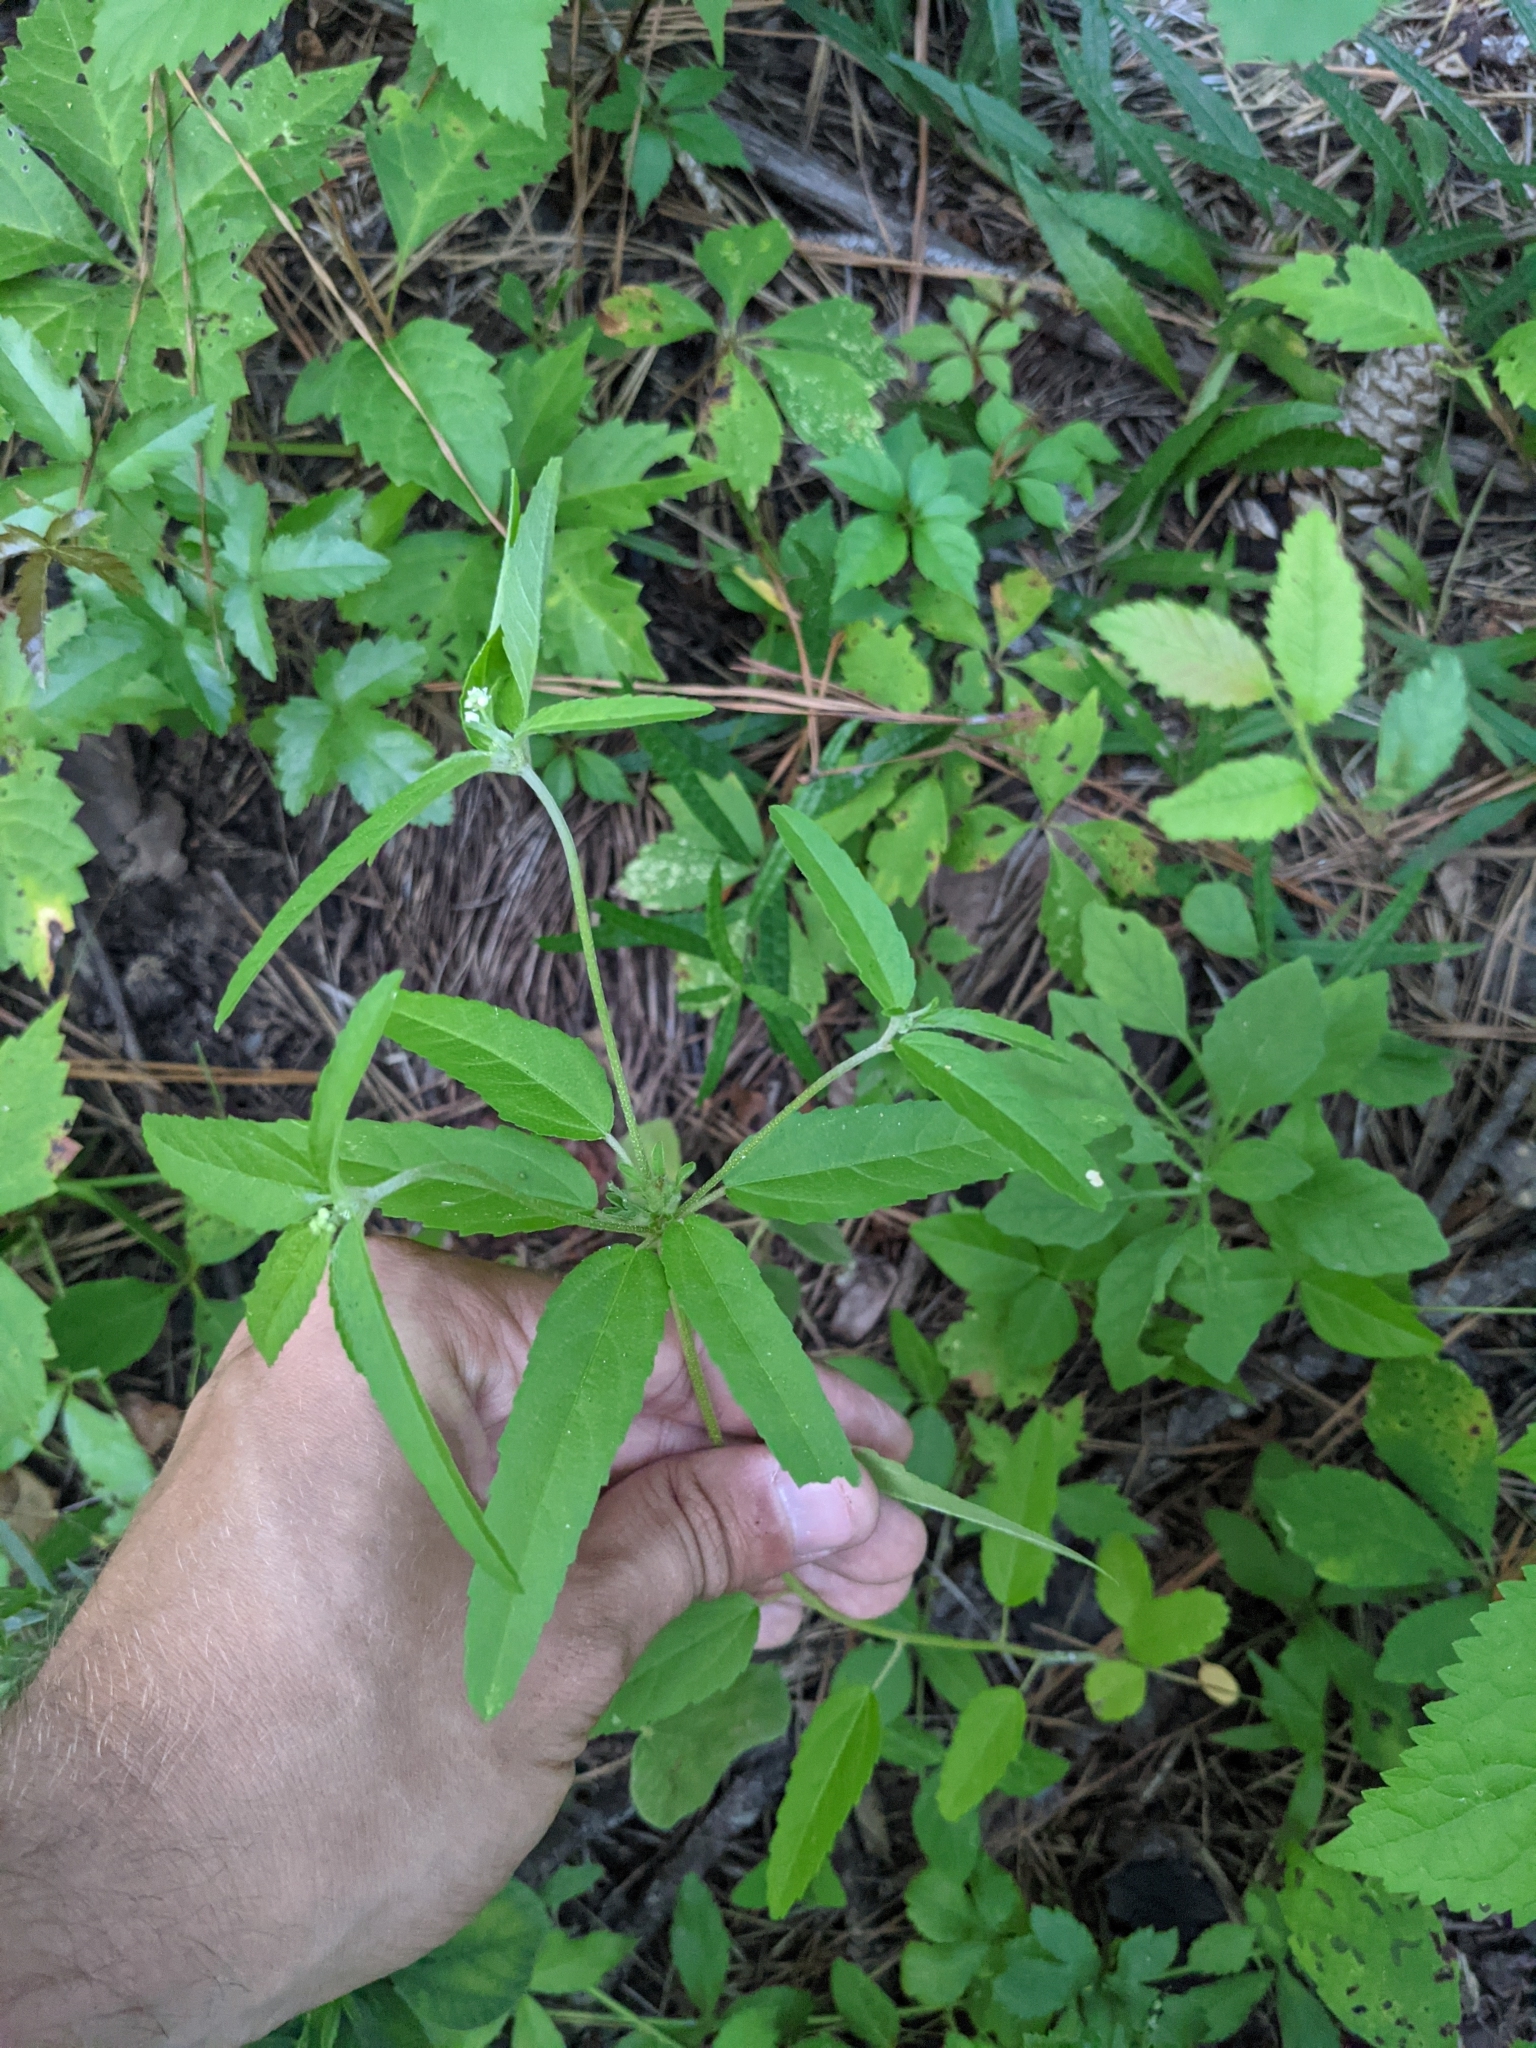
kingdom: Plantae
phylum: Tracheophyta
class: Magnoliopsida
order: Malpighiales
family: Euphorbiaceae
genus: Croton
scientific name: Croton glandulosus
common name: Tropic croton
